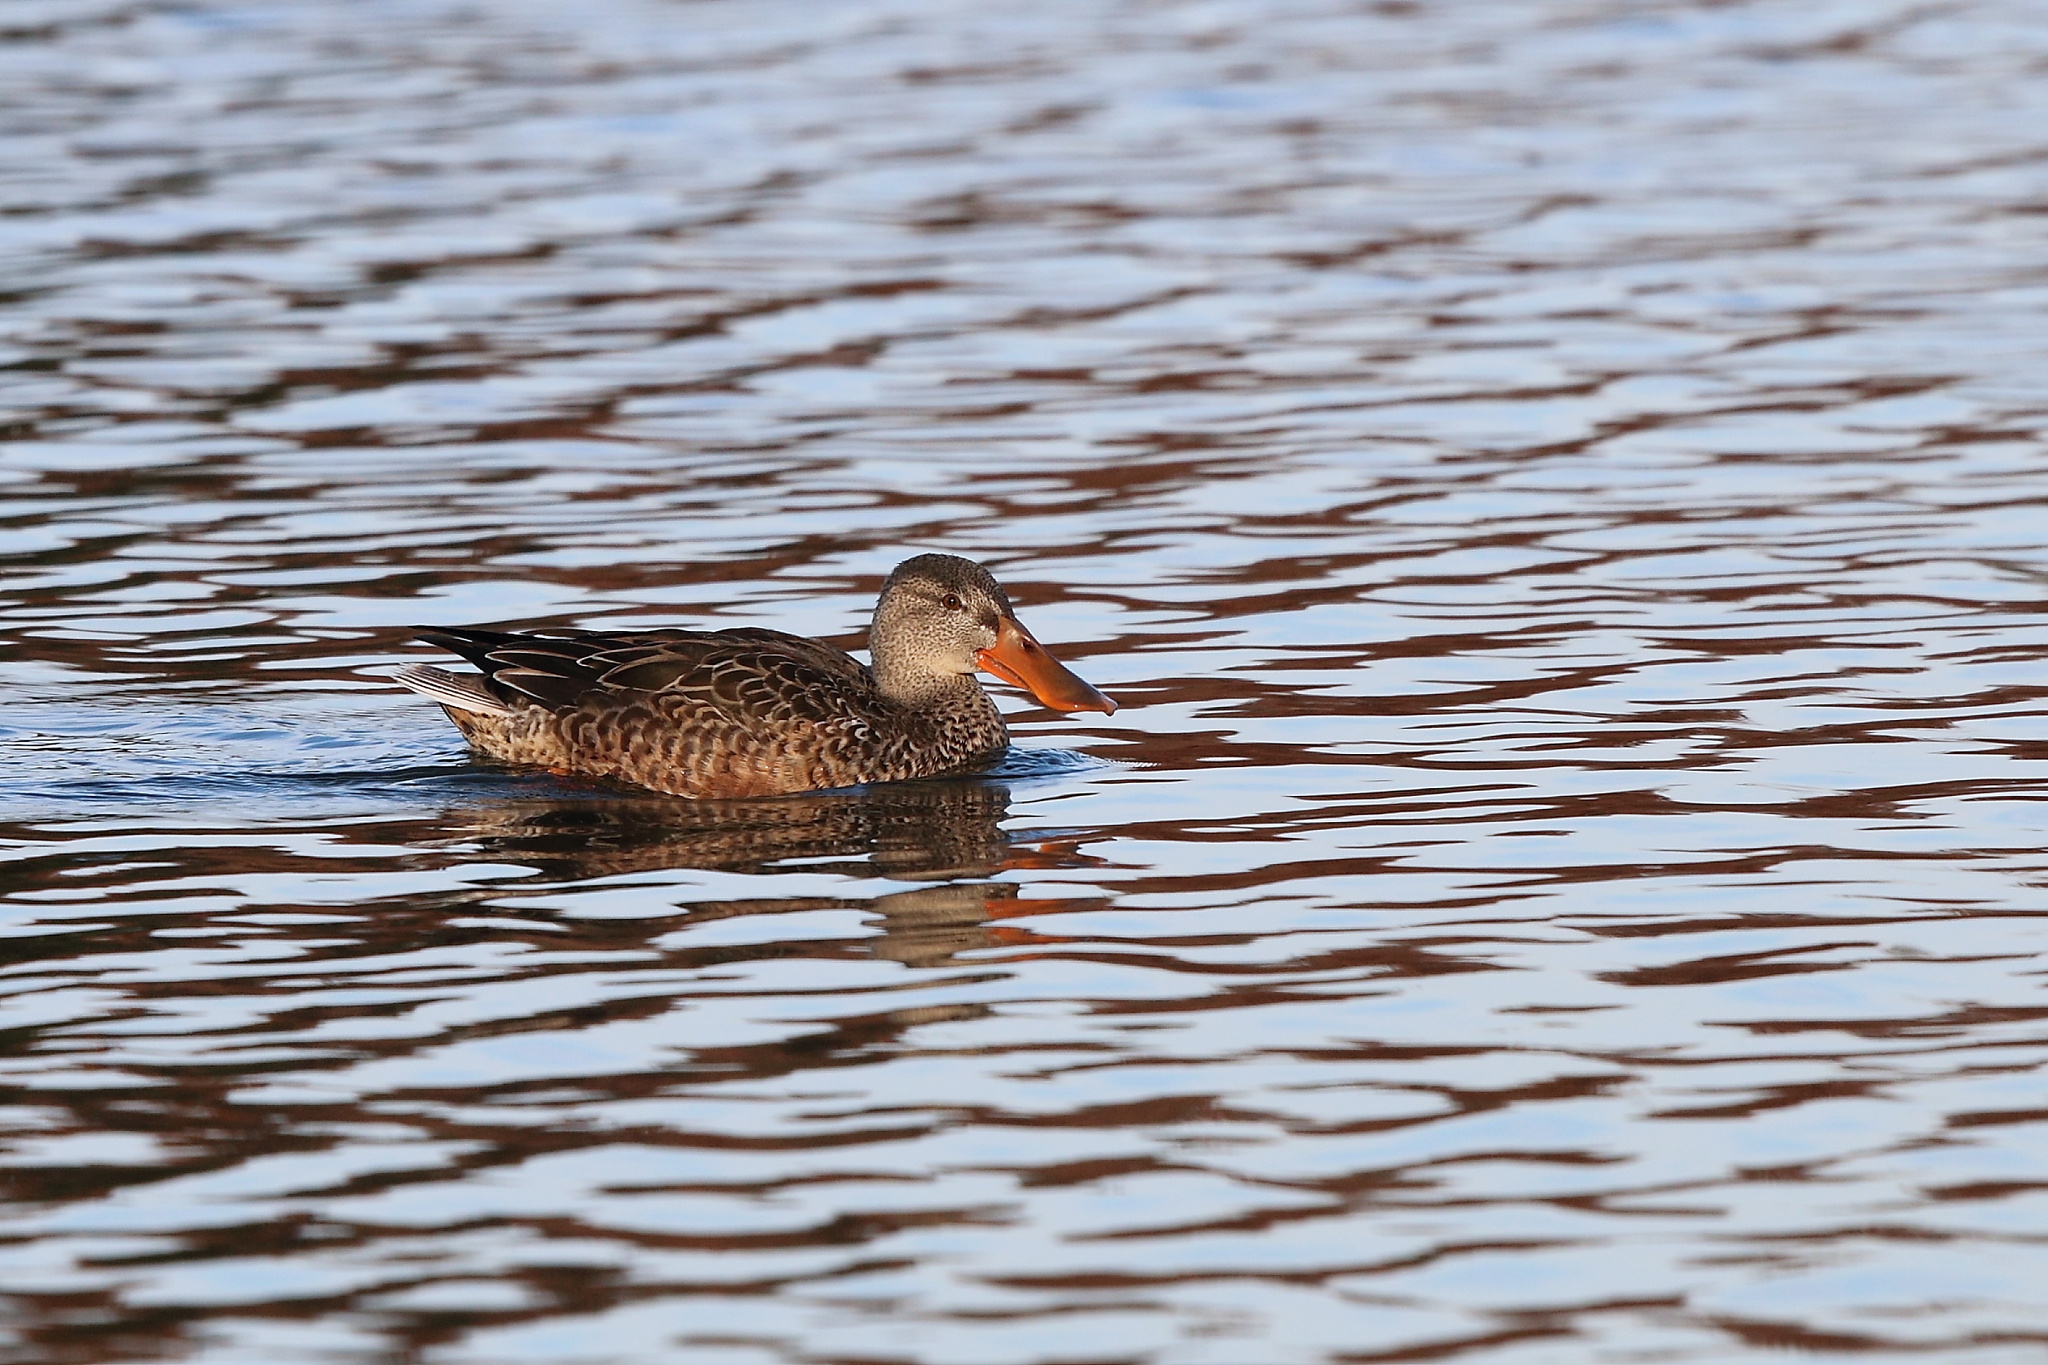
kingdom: Animalia
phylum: Chordata
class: Aves
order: Anseriformes
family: Anatidae
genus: Spatula
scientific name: Spatula clypeata
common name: Northern shoveler
